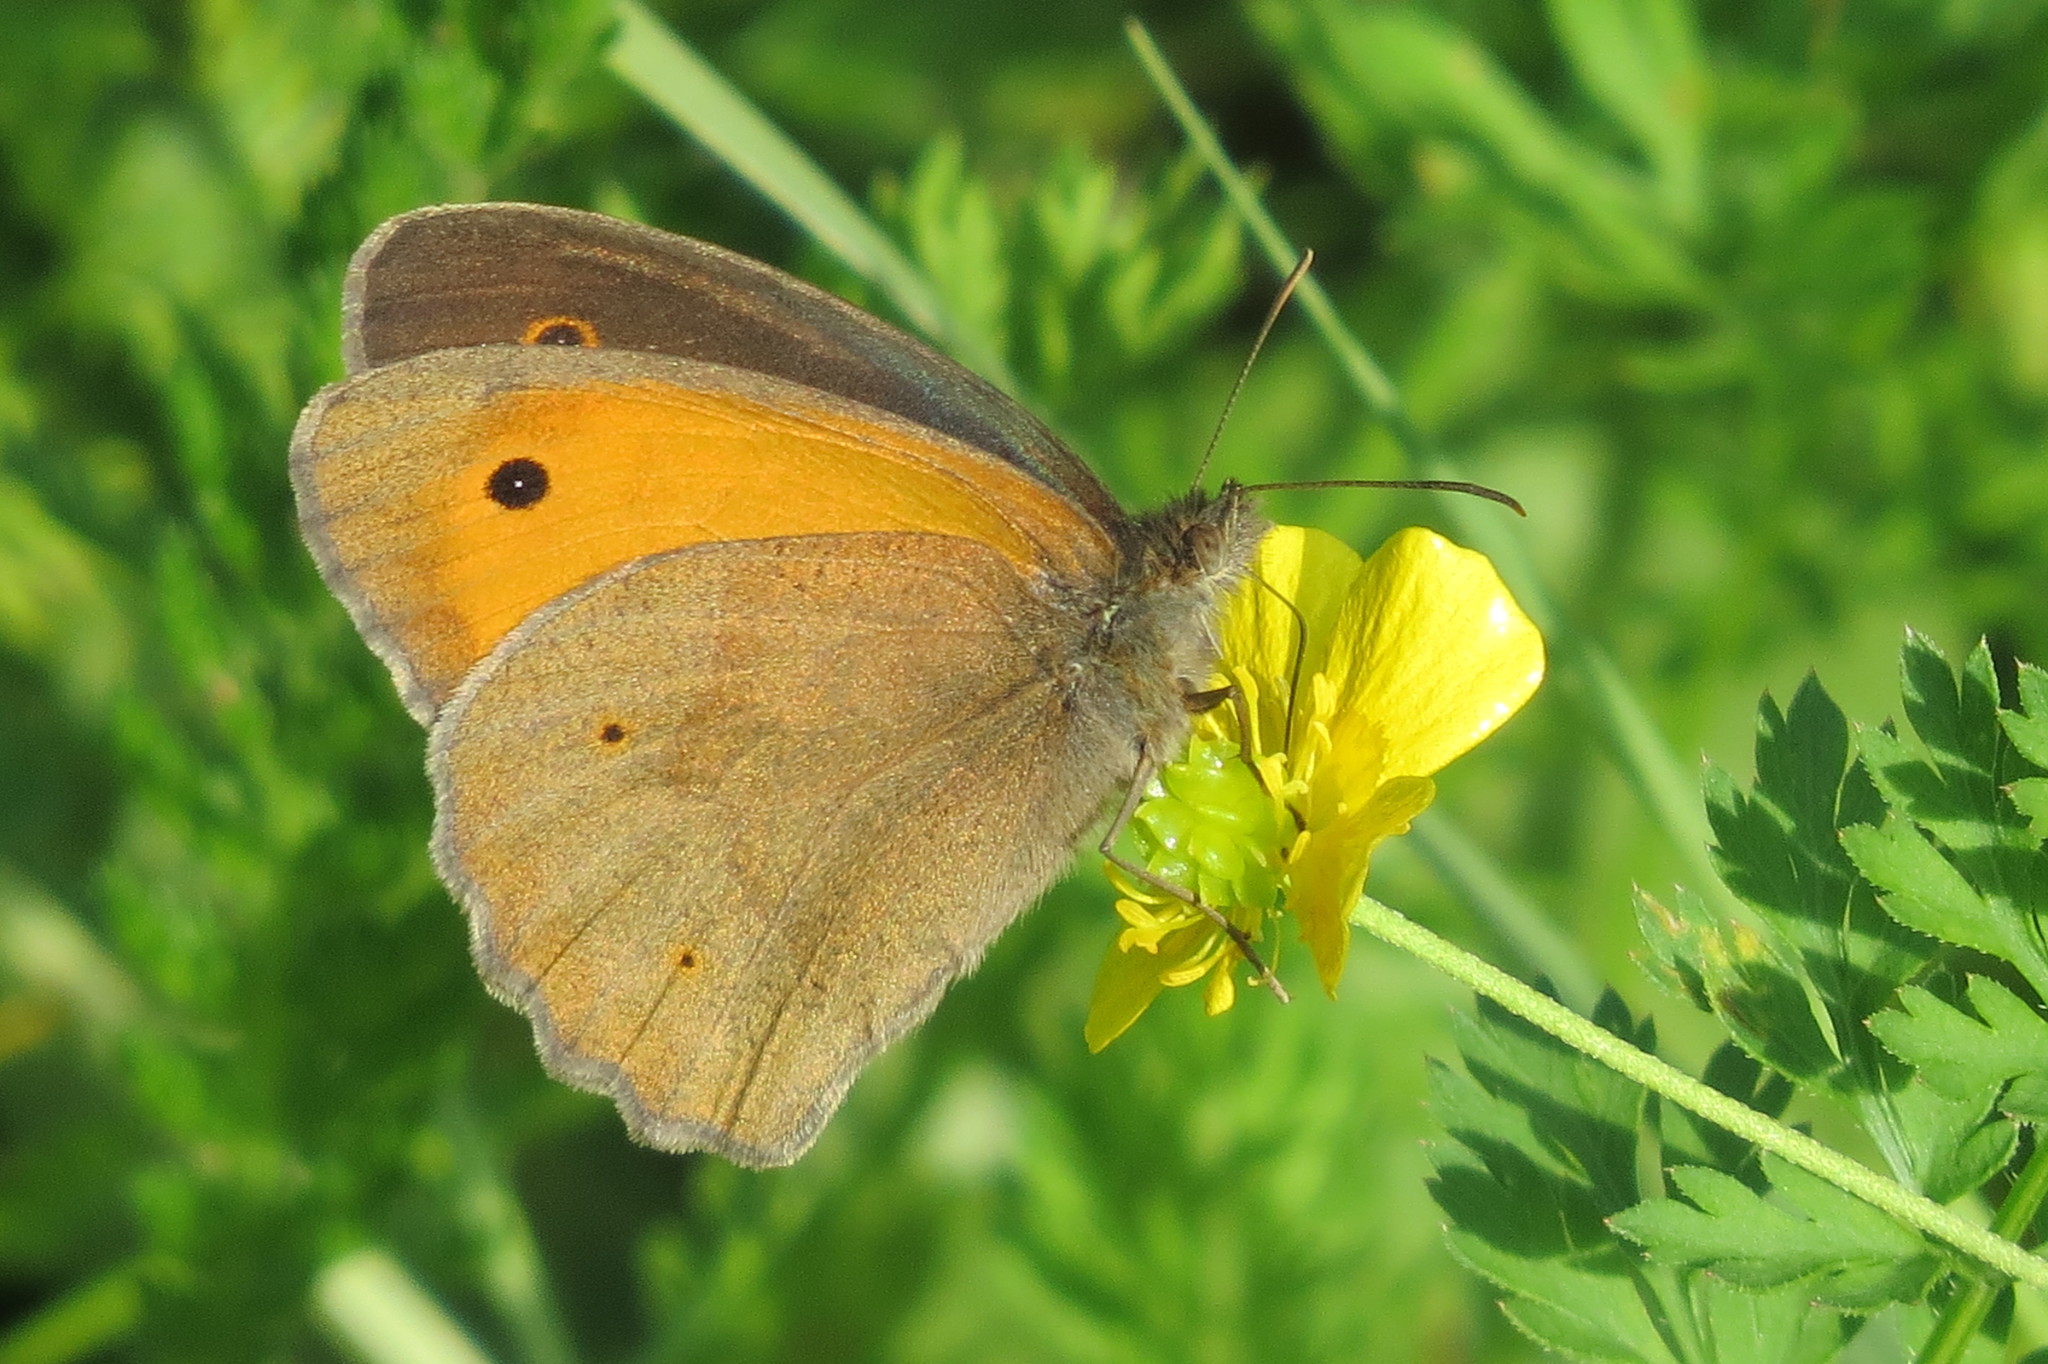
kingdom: Animalia
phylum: Arthropoda
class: Insecta
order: Lepidoptera
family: Nymphalidae
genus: Maniola
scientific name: Maniola jurtina
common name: Meadow brown
